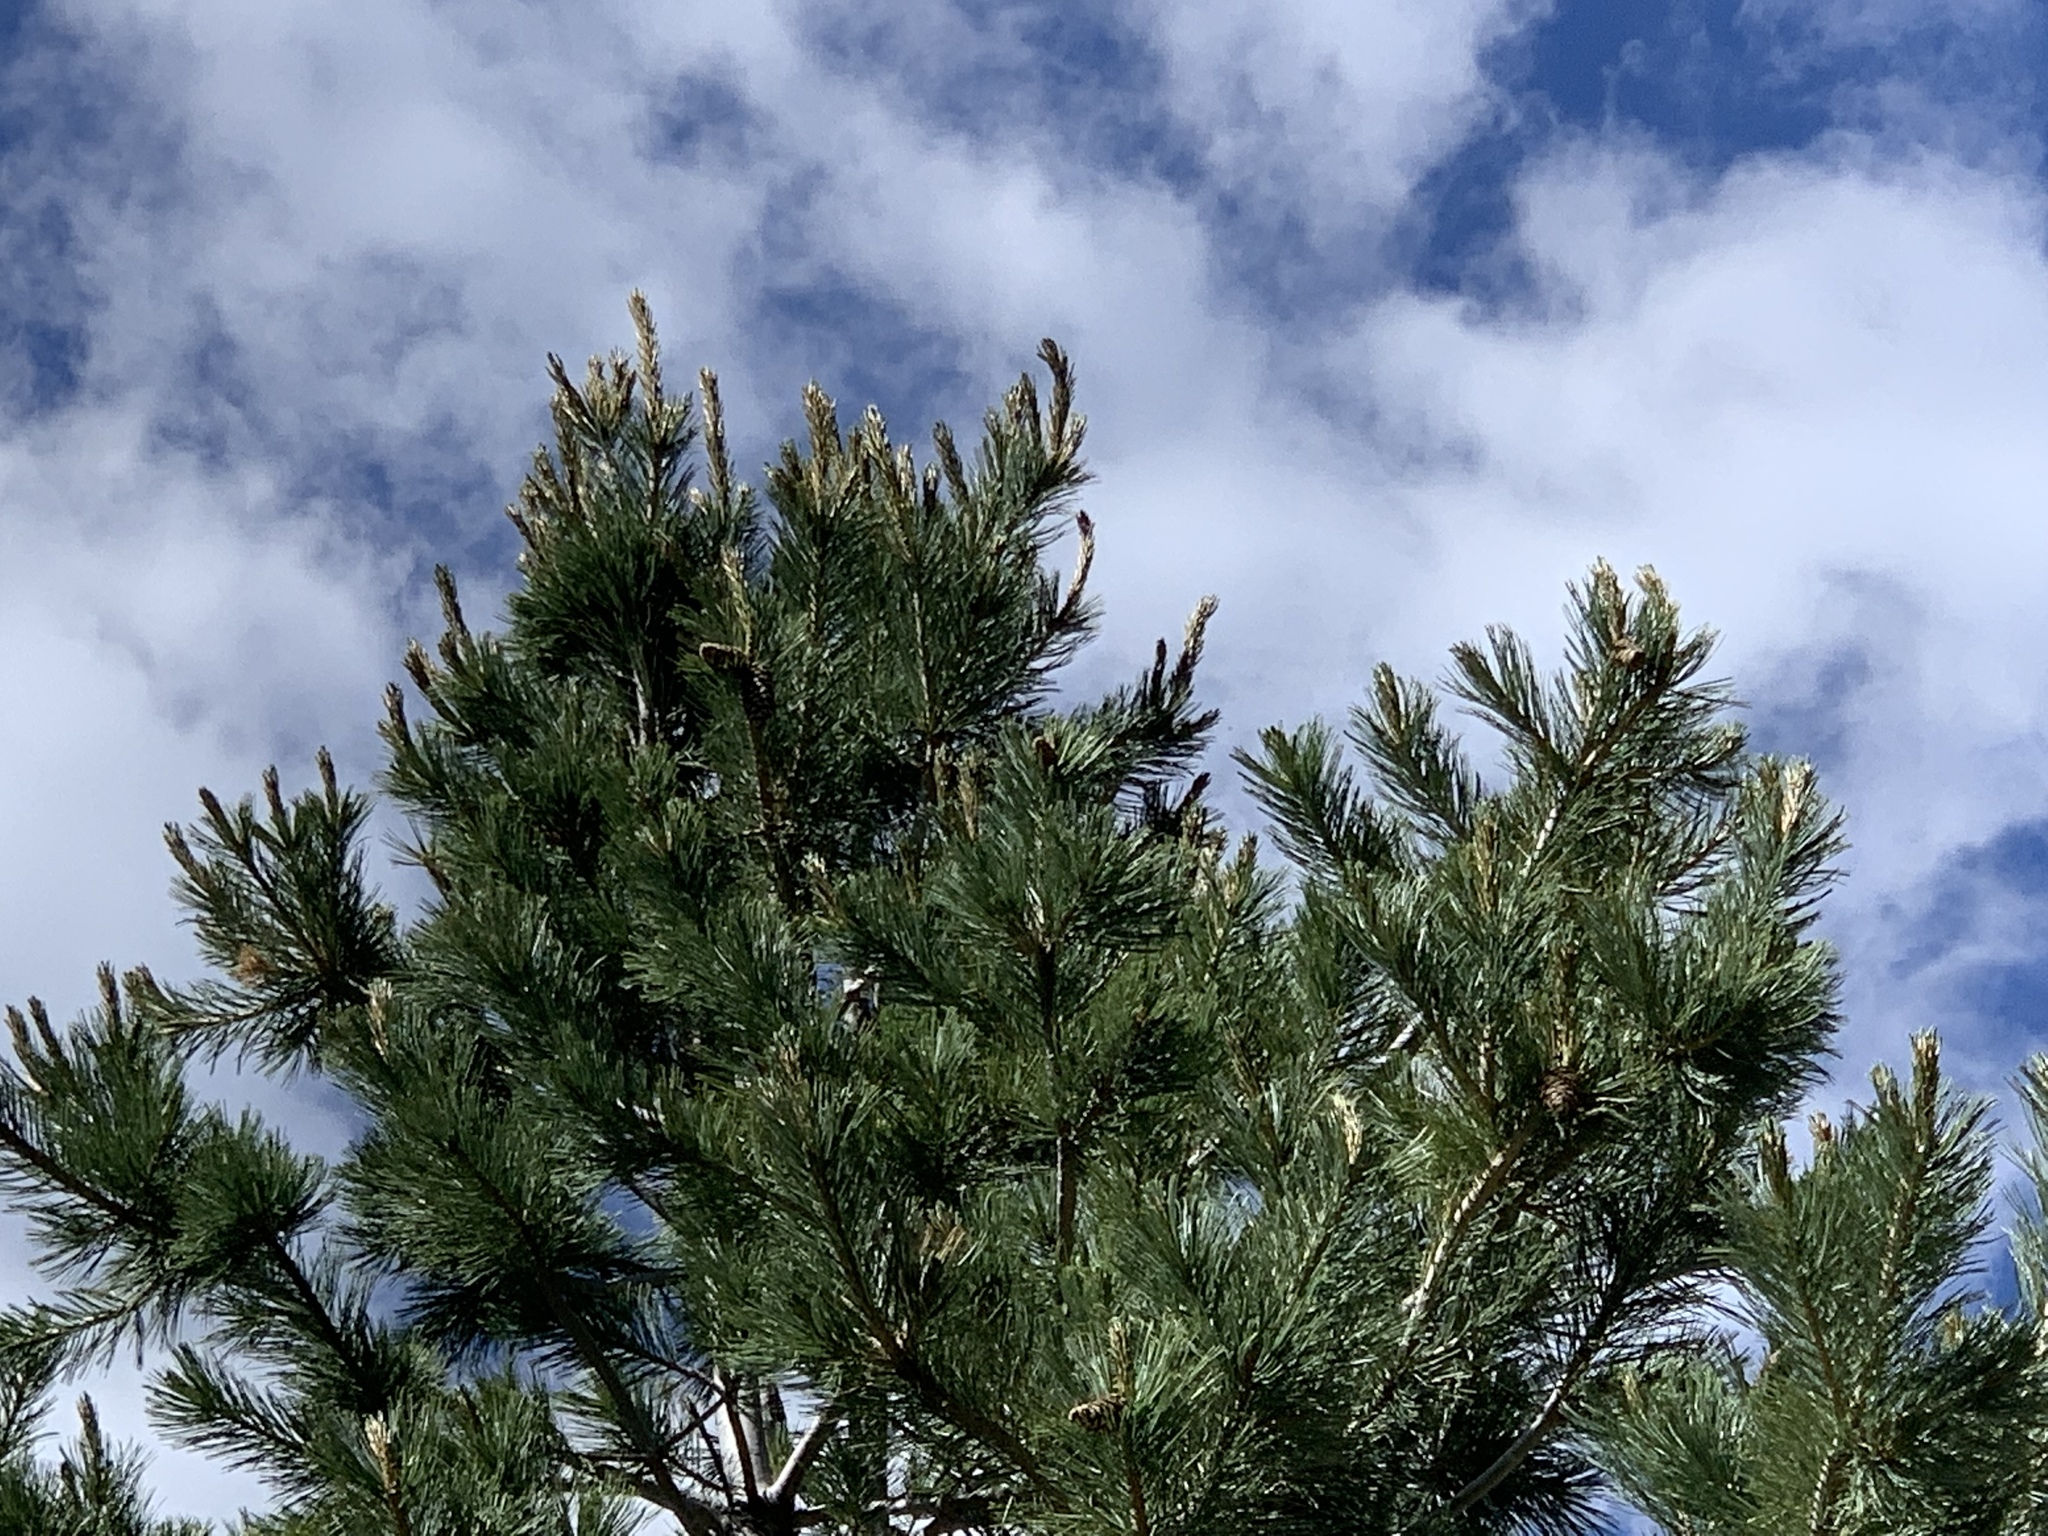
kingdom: Plantae
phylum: Tracheophyta
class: Pinopsida
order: Pinales
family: Pinaceae
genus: Pinus
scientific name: Pinus strobiformis
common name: Southwestern white pine
